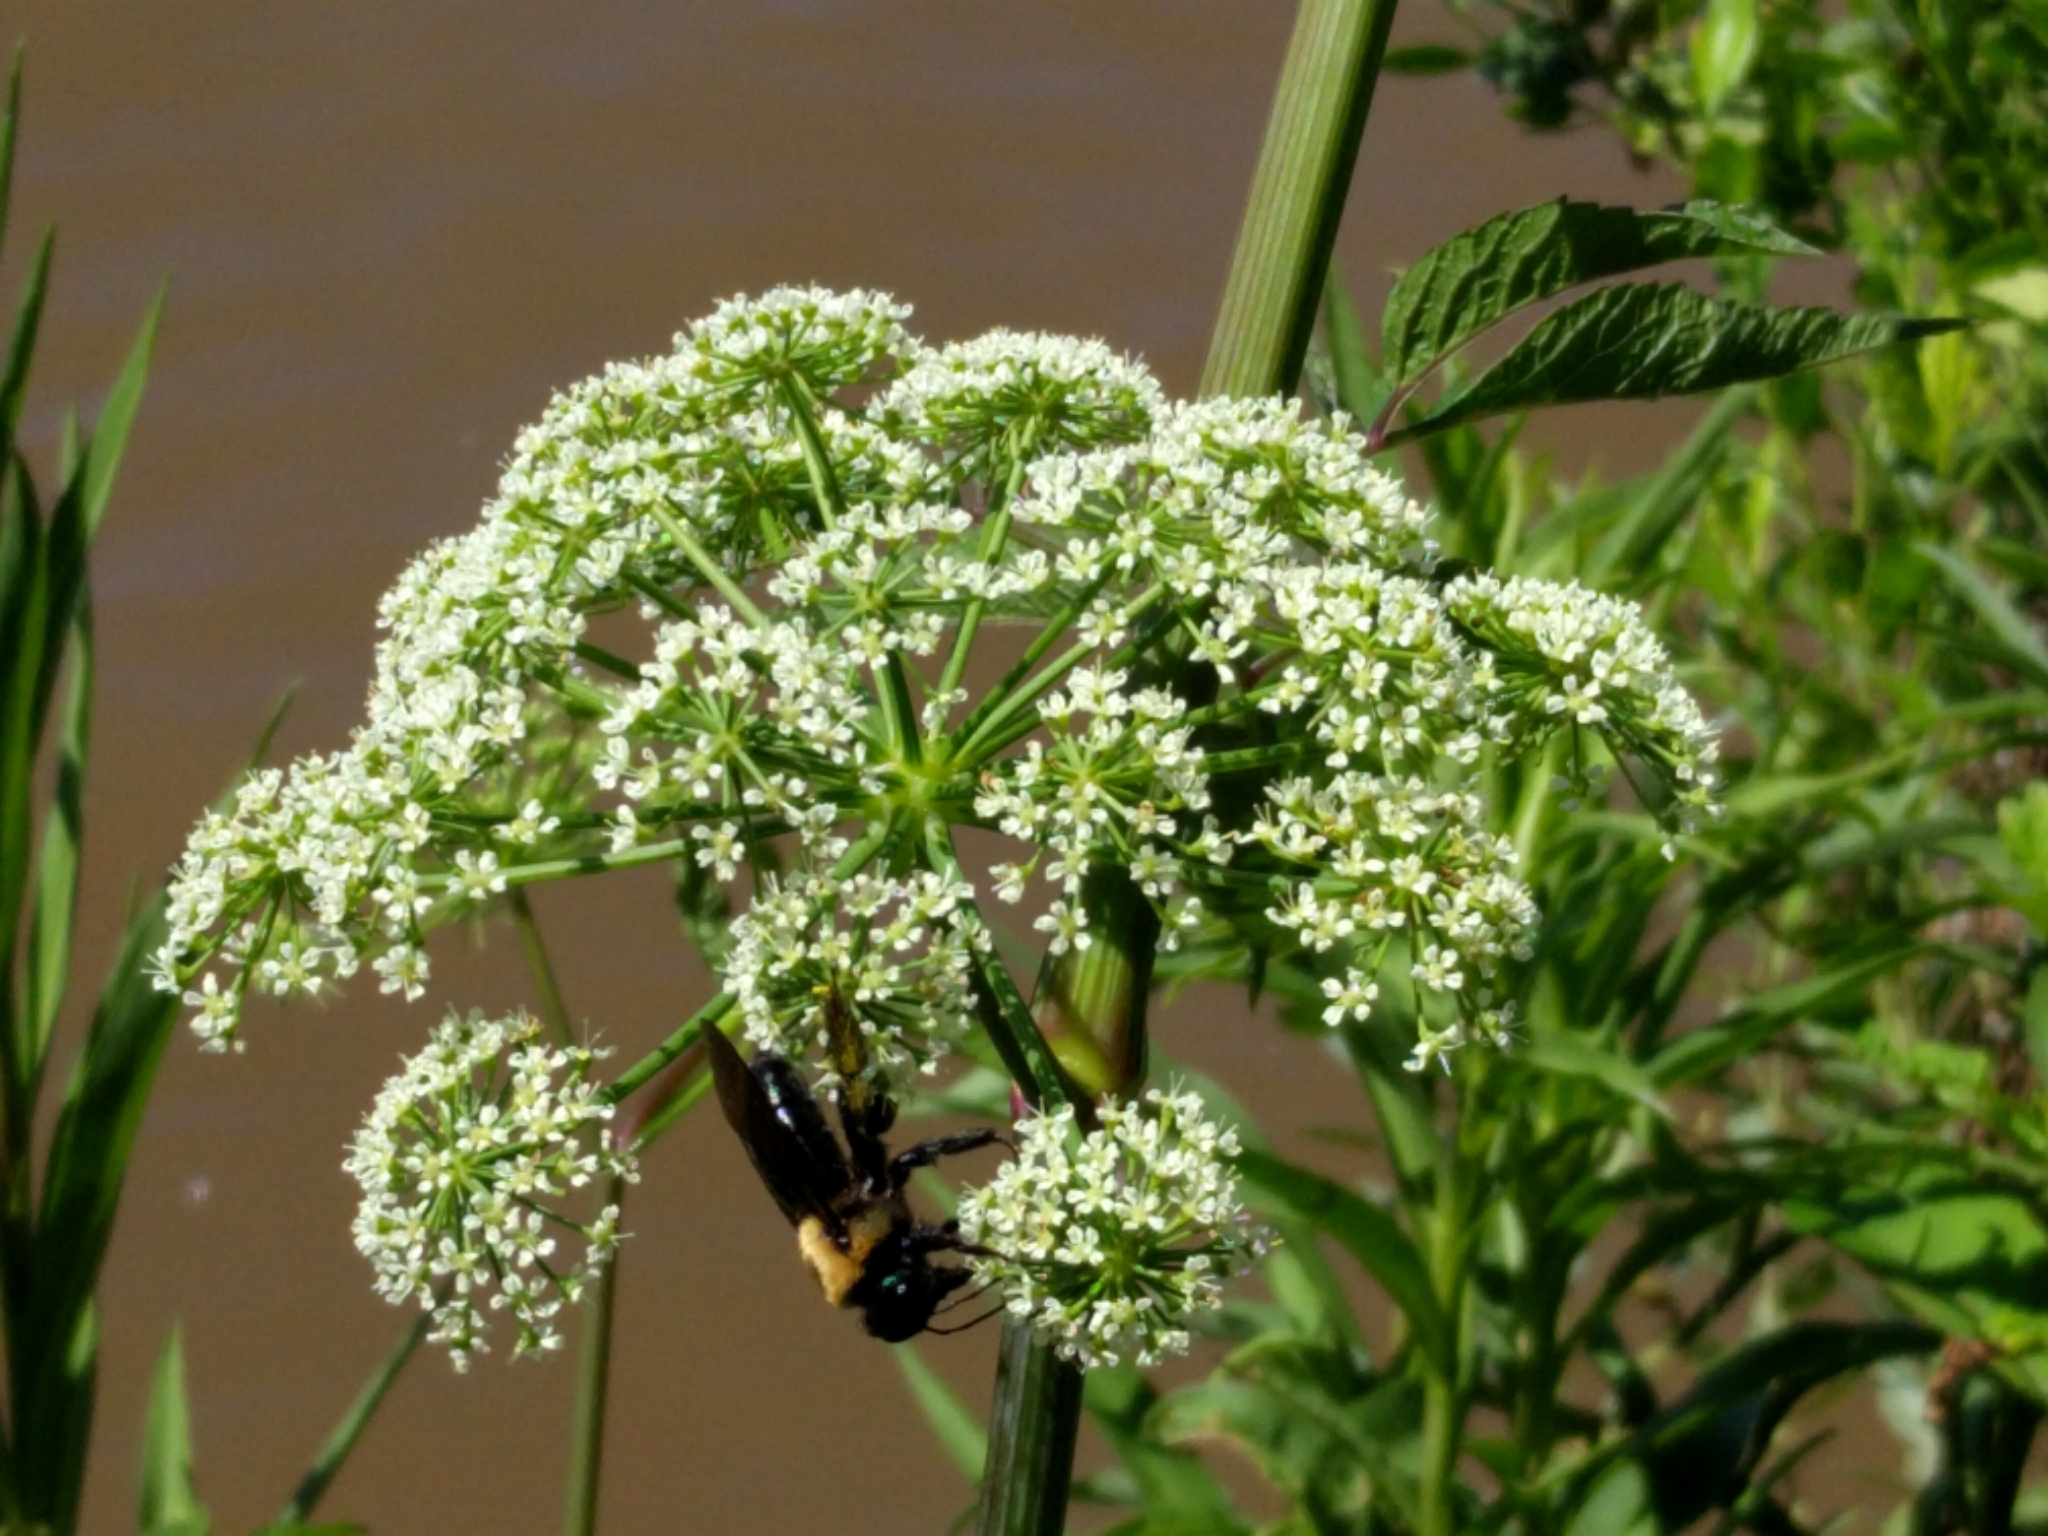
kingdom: Animalia
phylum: Arthropoda
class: Insecta
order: Hymenoptera
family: Apidae
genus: Xylocopa
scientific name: Xylocopa virginica
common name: Carpenter bee
